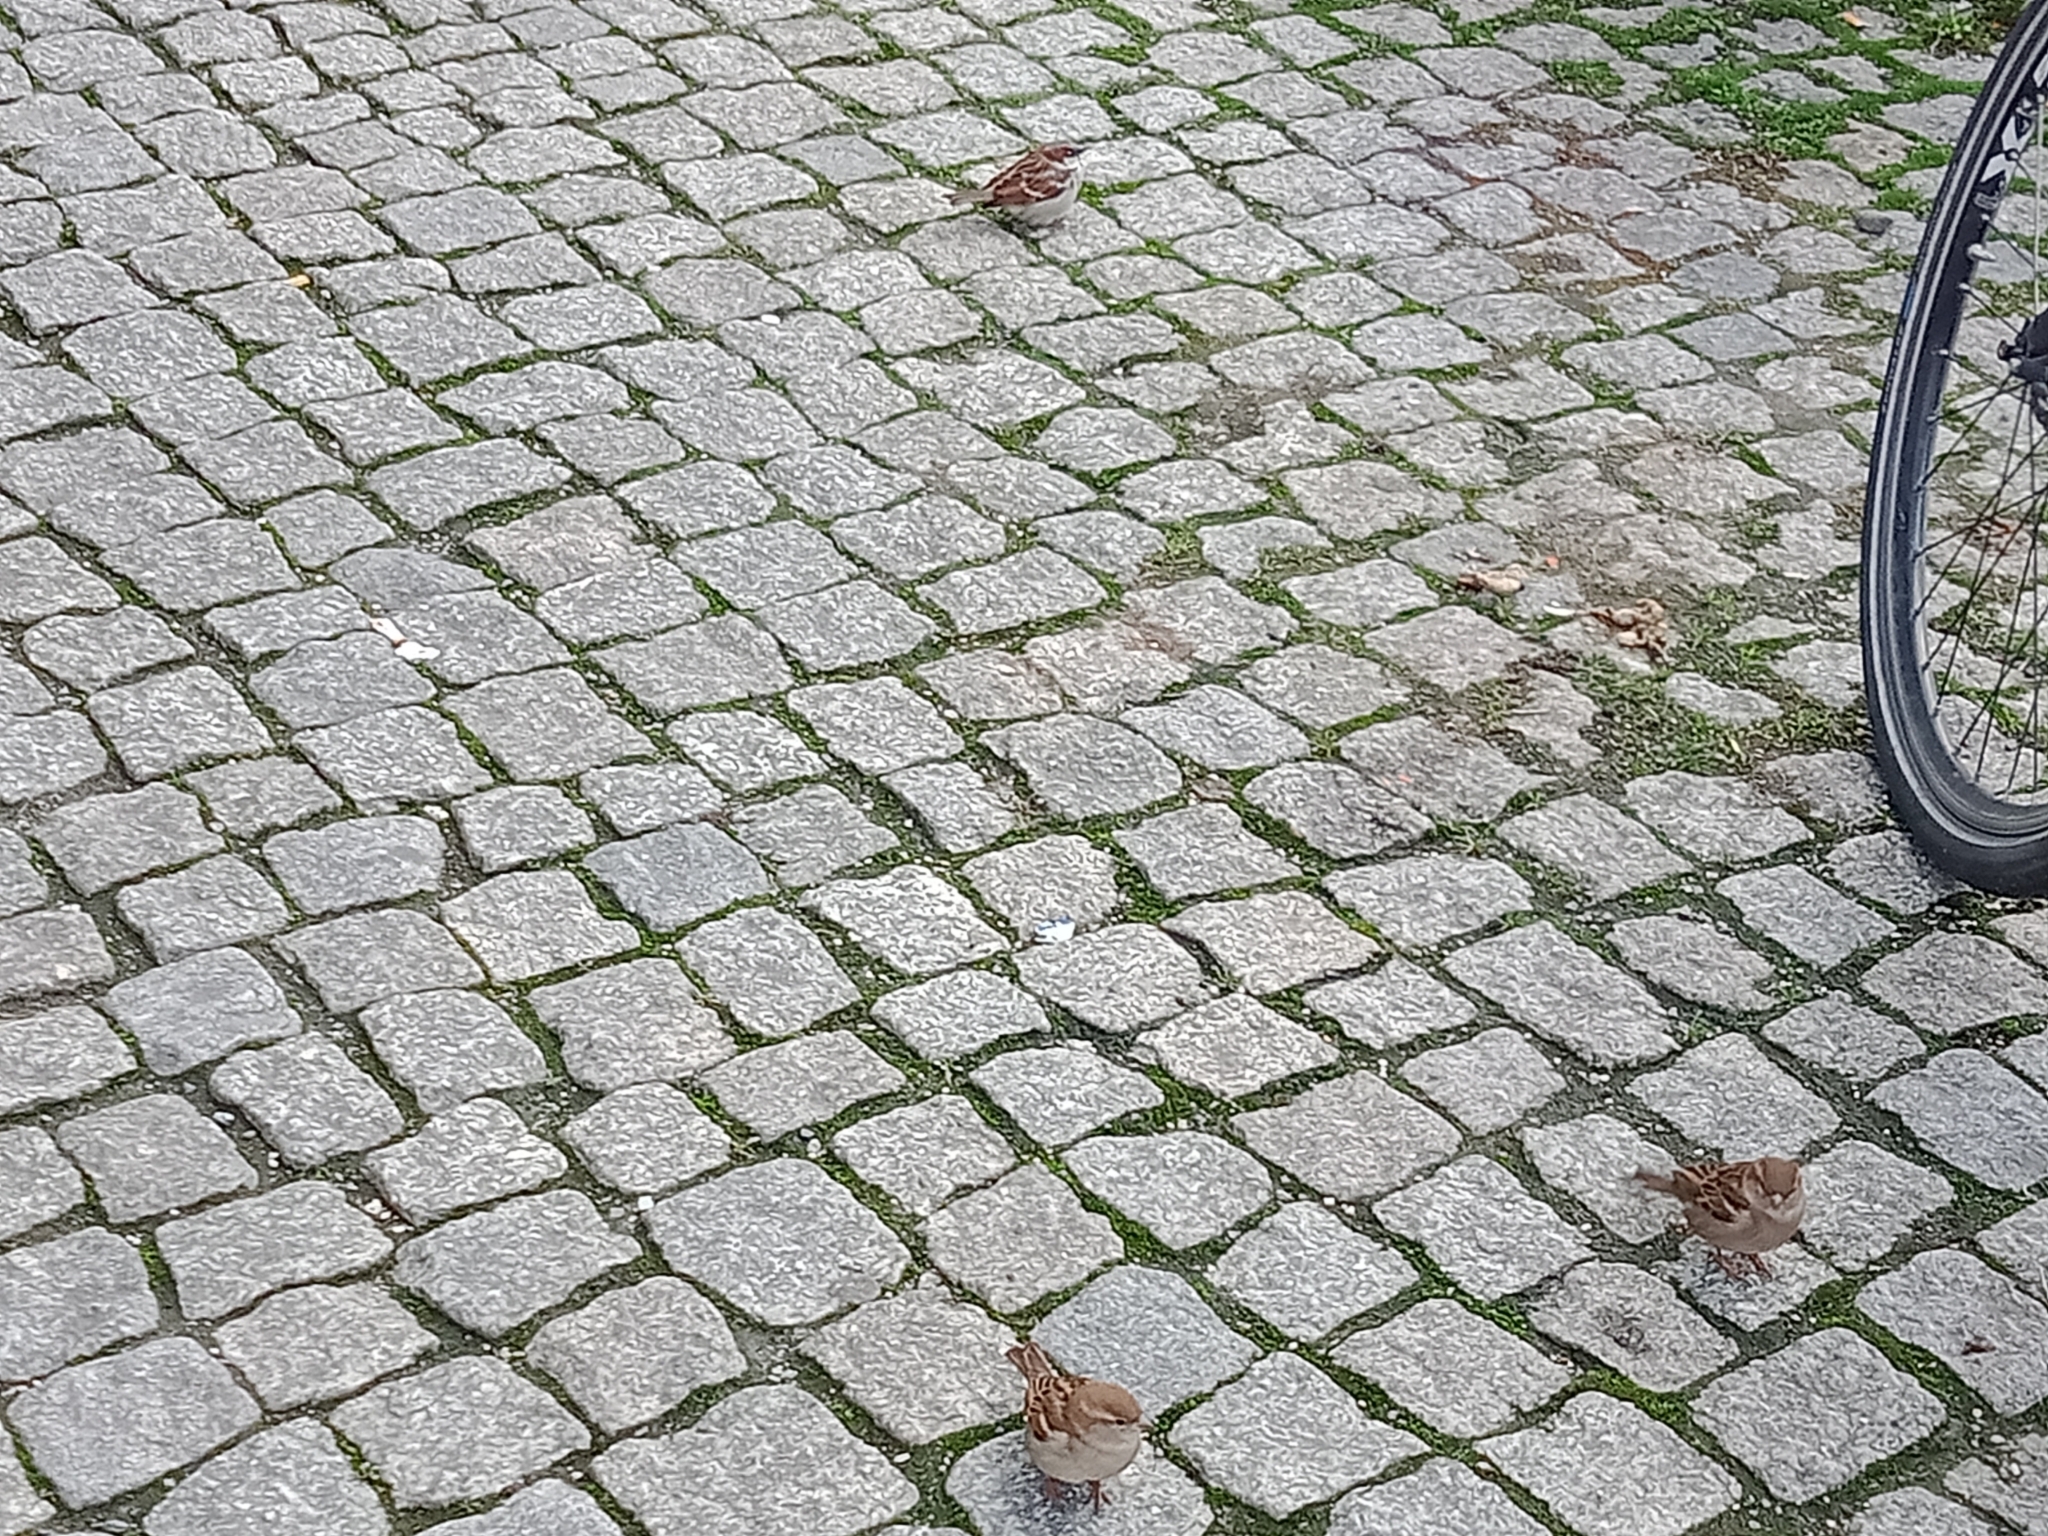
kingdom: Animalia
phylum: Chordata
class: Aves
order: Passeriformes
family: Passeridae
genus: Passer
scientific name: Passer domesticus
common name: House sparrow
